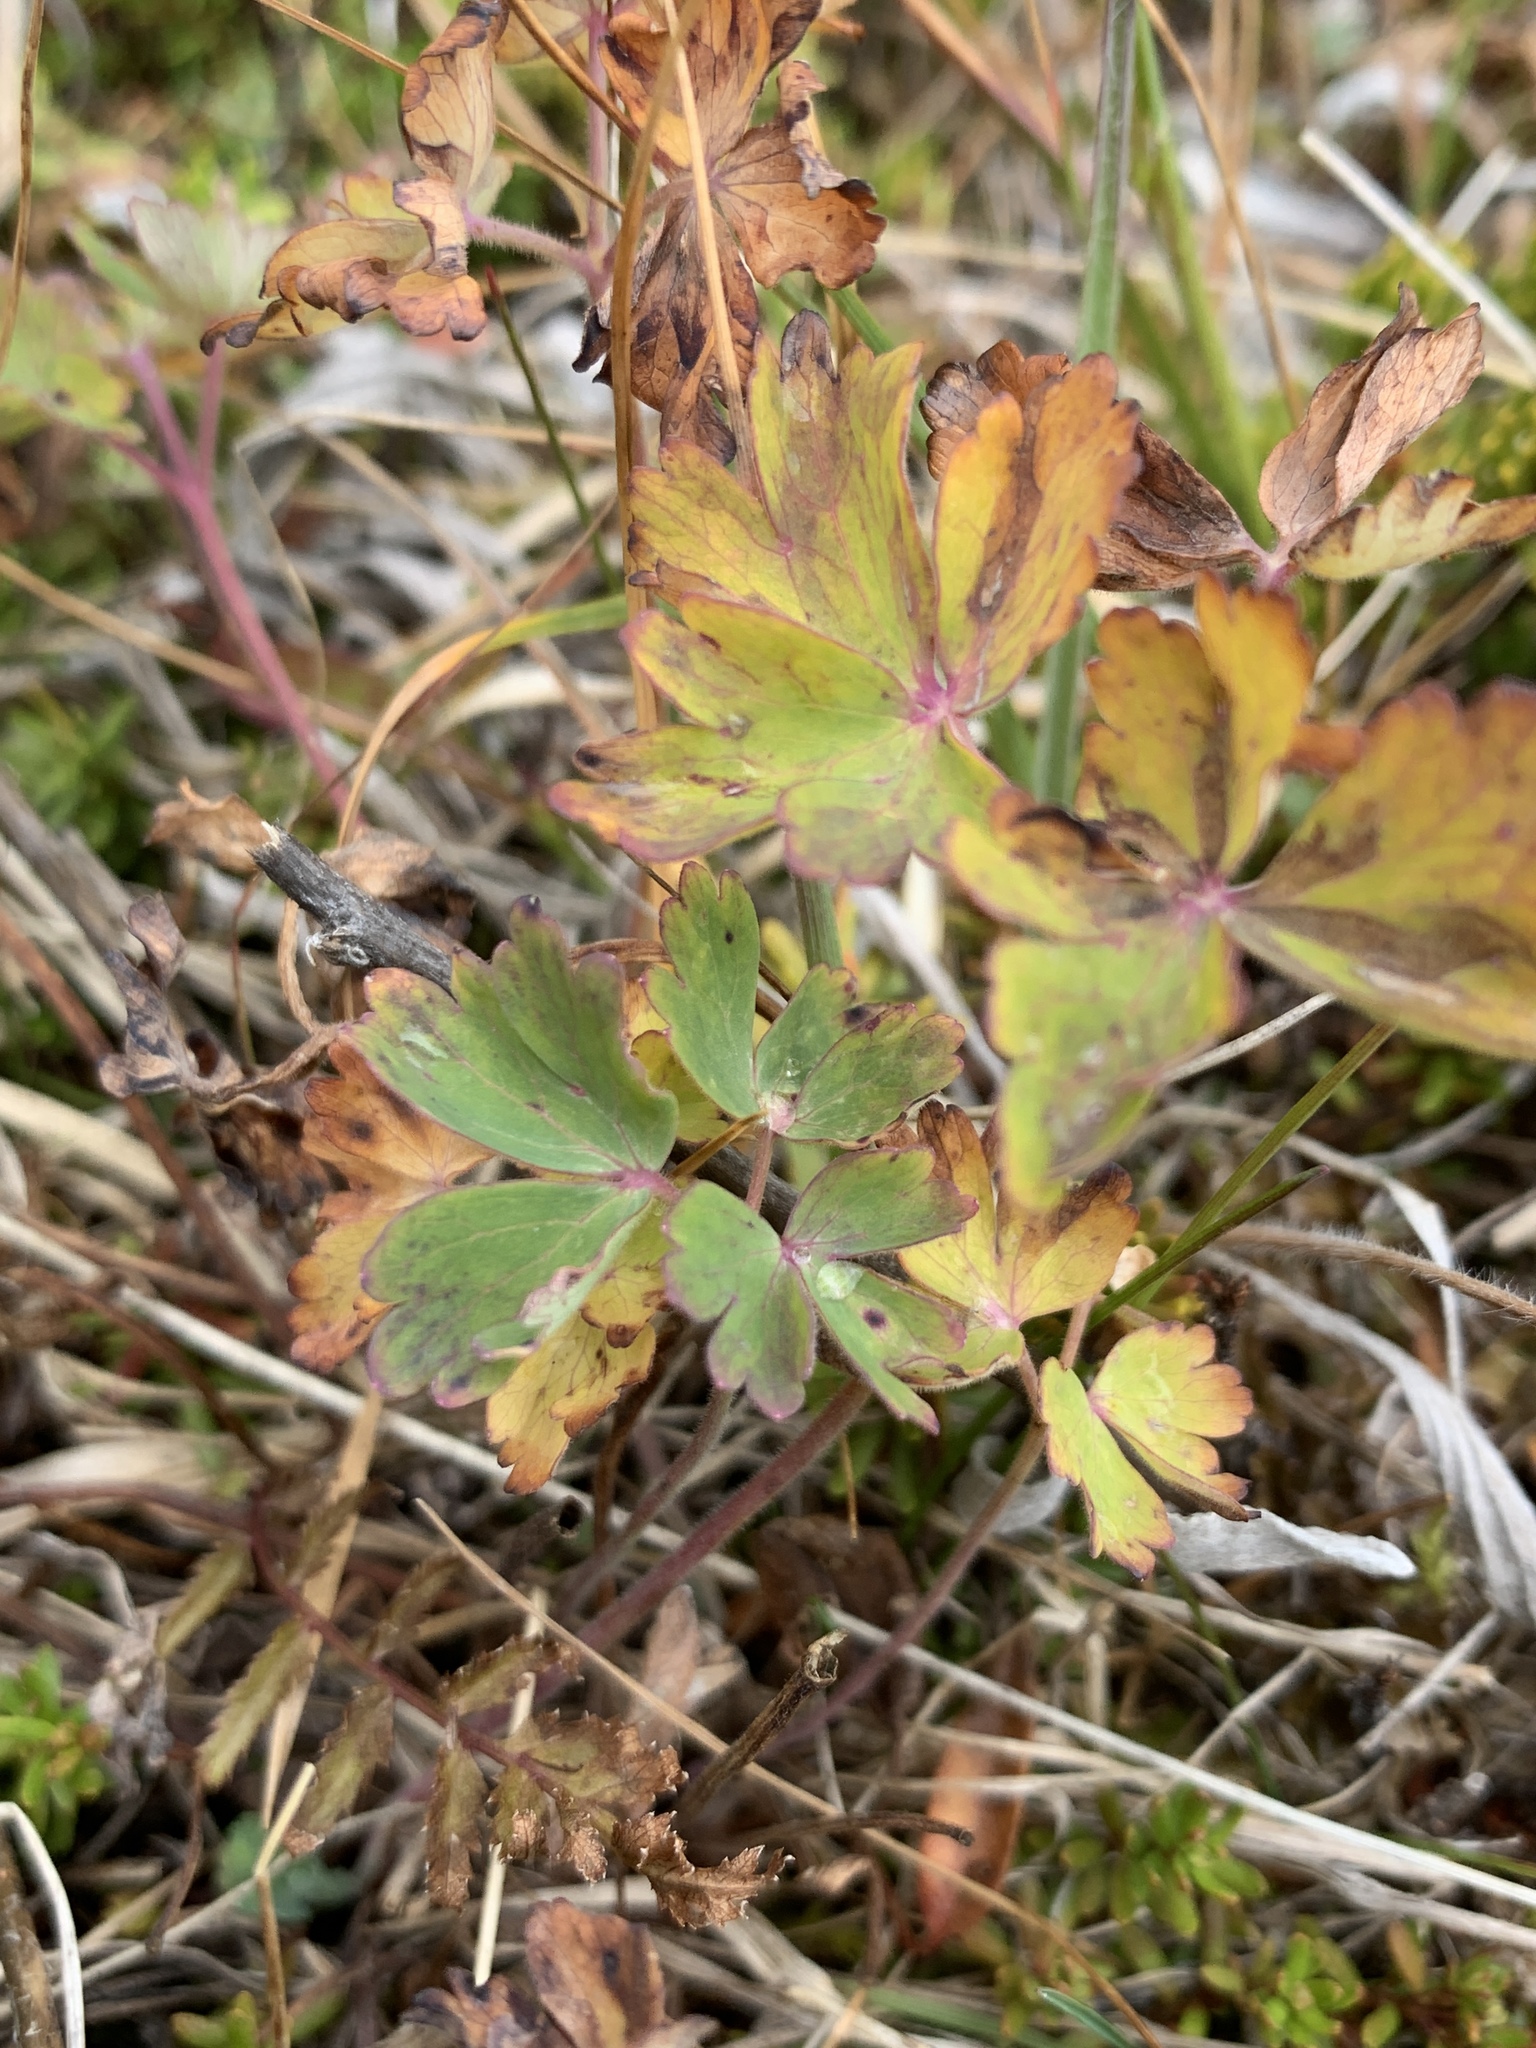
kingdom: Plantae
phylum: Tracheophyta
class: Magnoliopsida
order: Ranunculales
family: Ranunculaceae
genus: Aquilegia
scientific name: Aquilegia flavescens
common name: Yellow columbine
